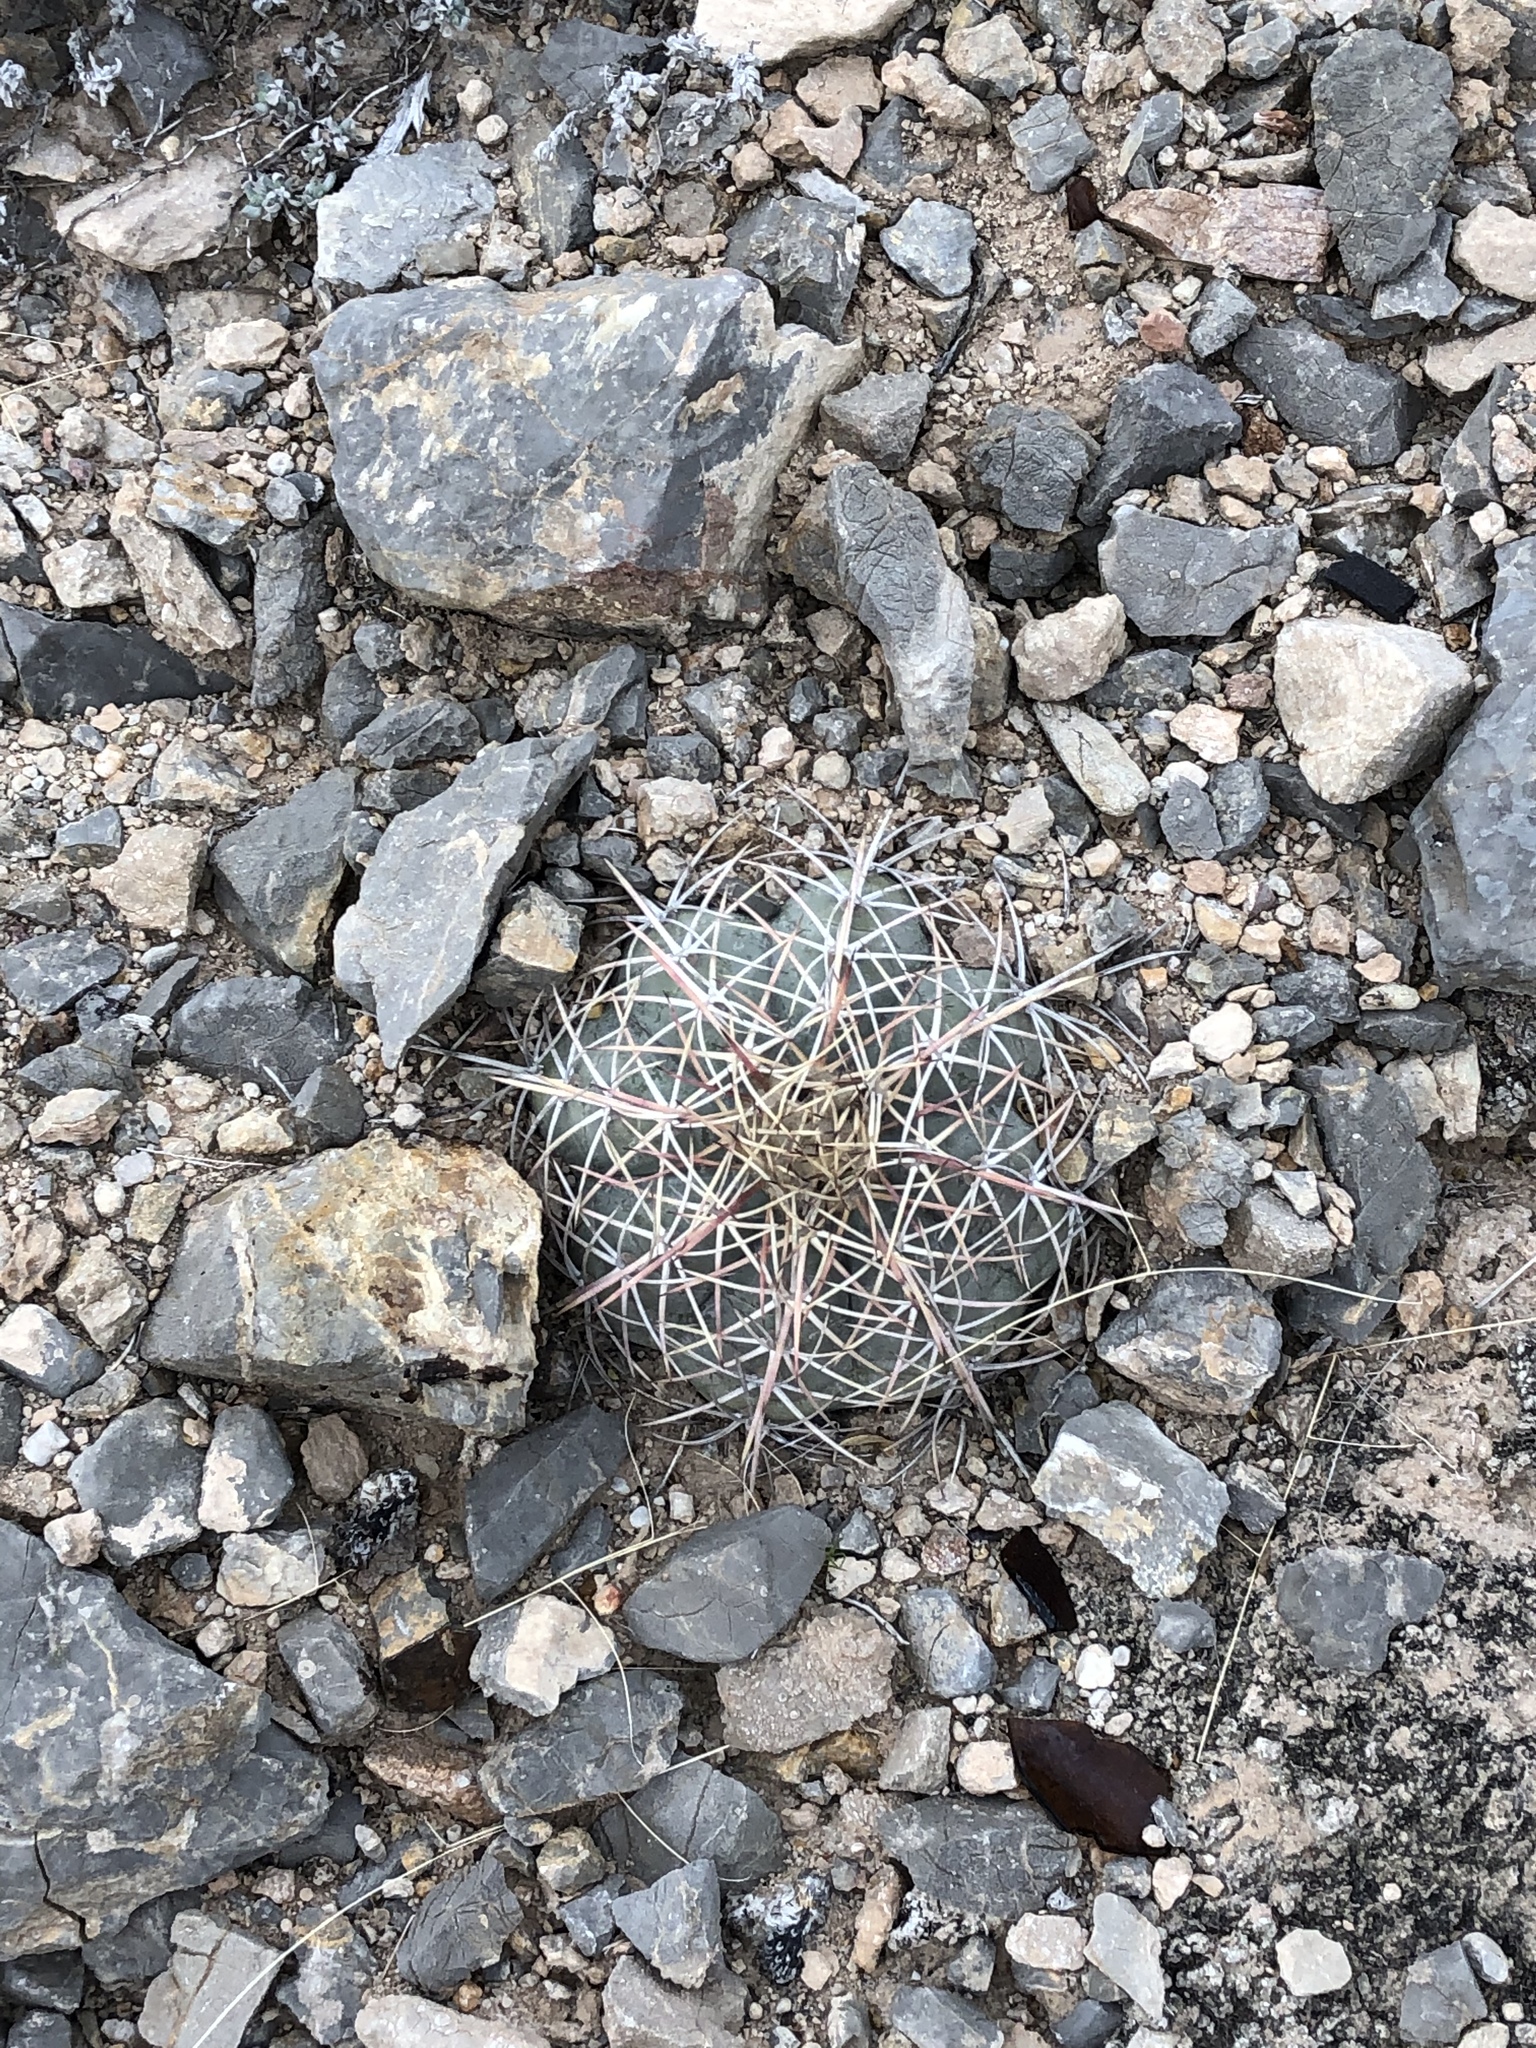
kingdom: Plantae
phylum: Tracheophyta
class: Magnoliopsida
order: Caryophyllales
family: Cactaceae
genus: Echinocactus
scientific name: Echinocactus horizonthalonius
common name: Devilshead
